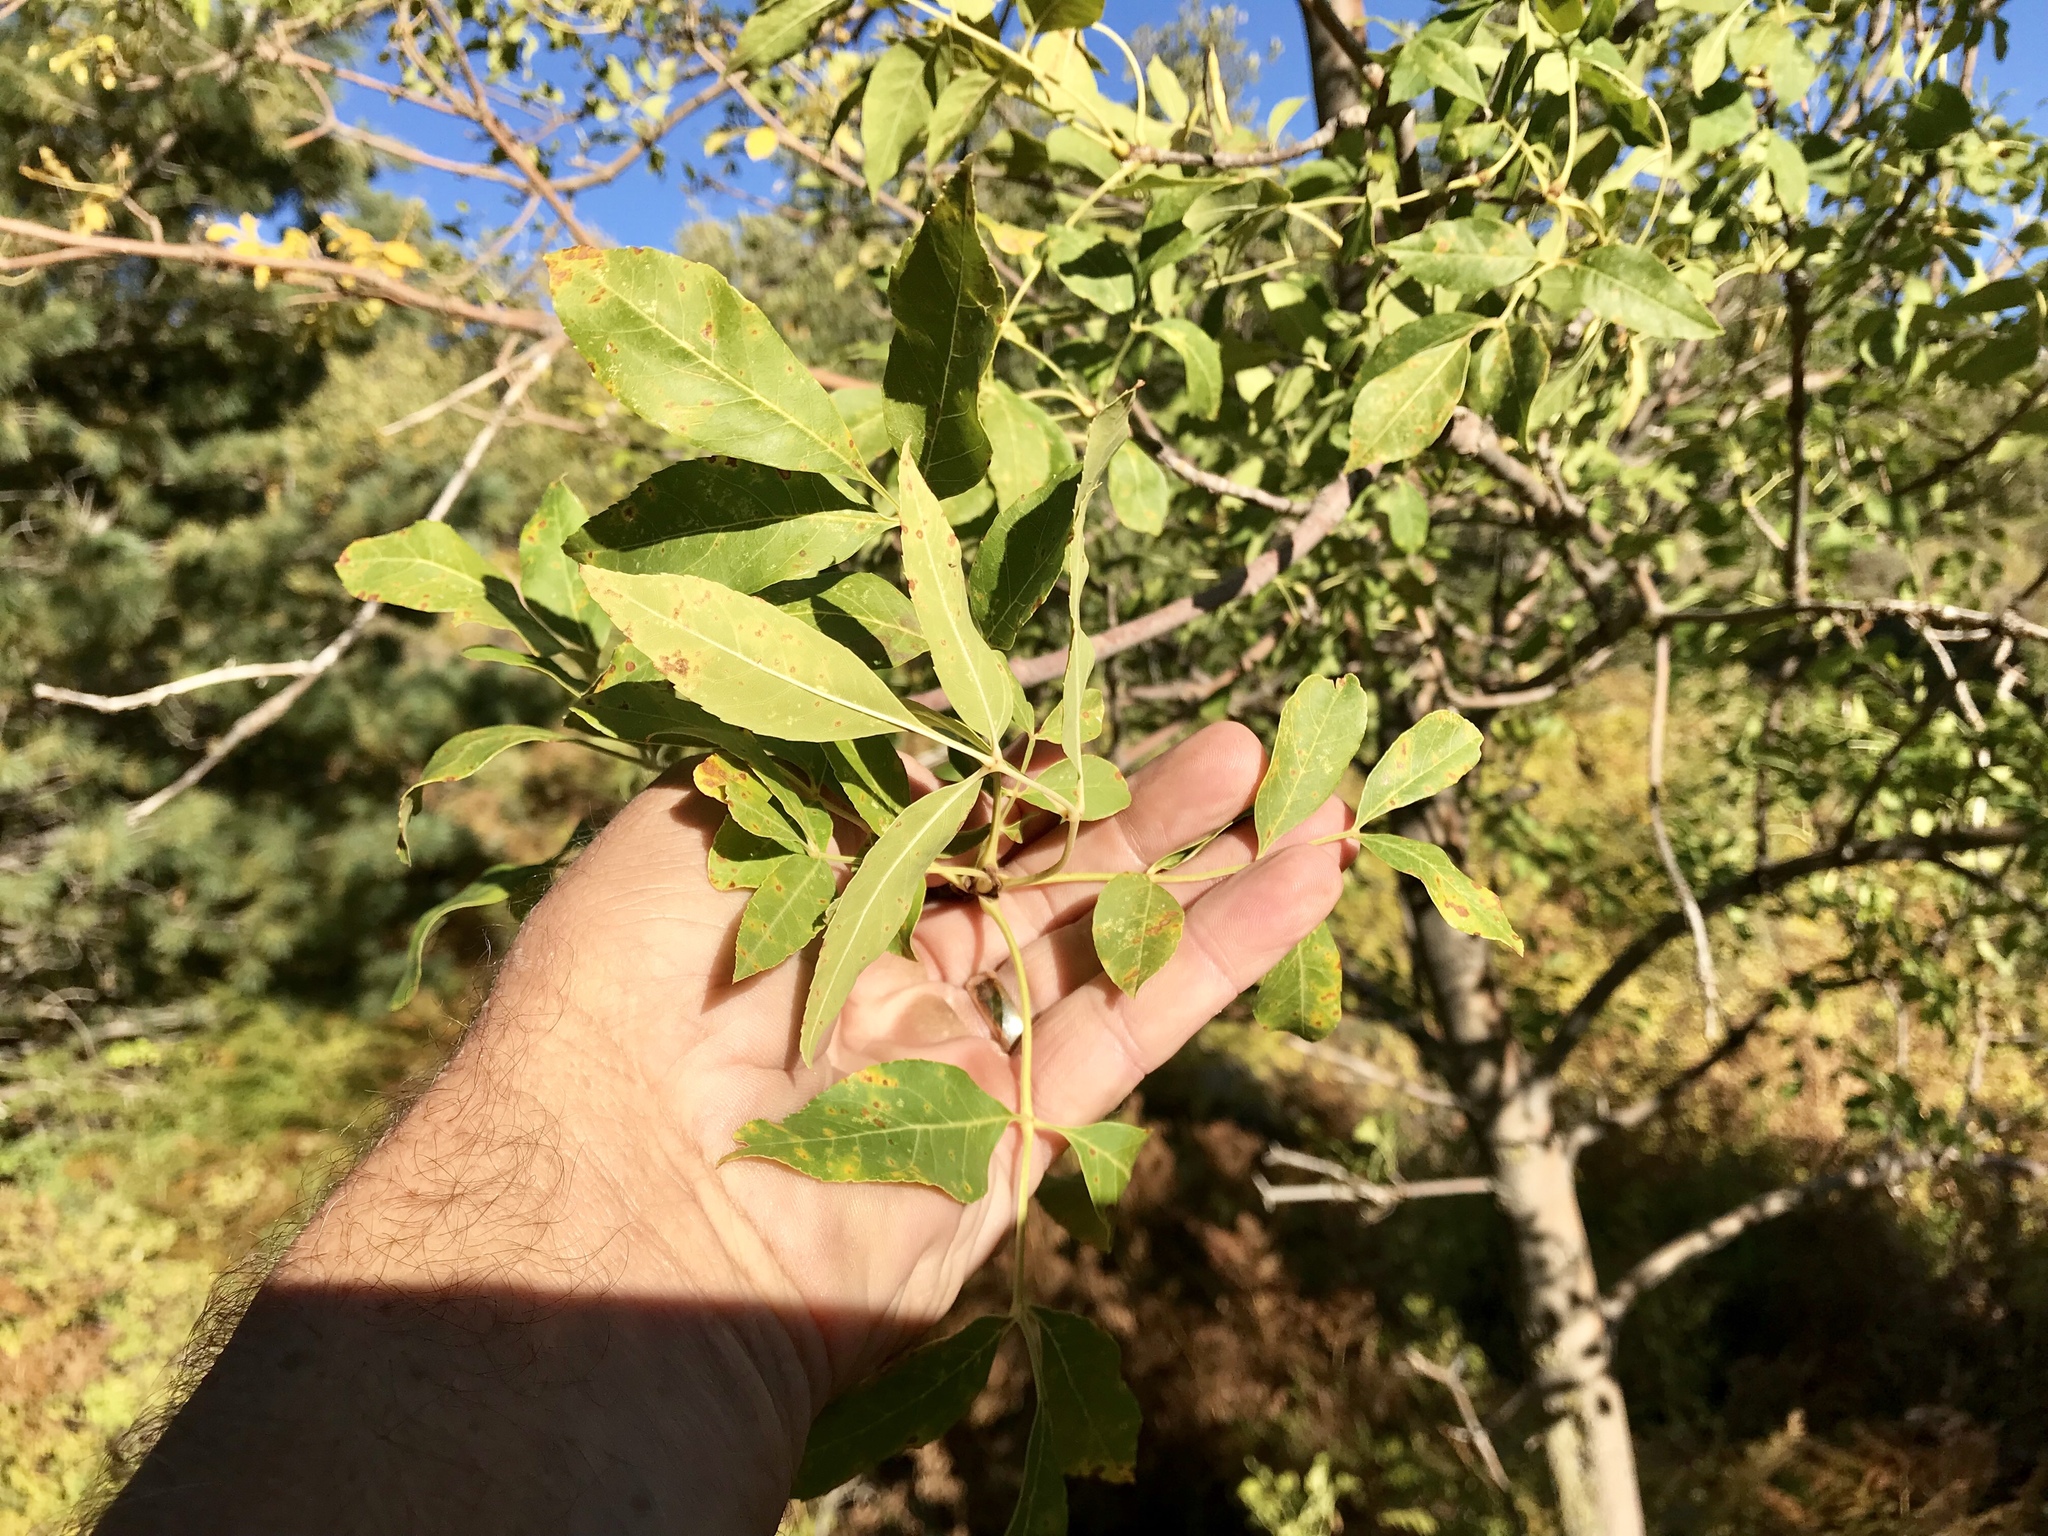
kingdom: Plantae
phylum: Tracheophyta
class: Magnoliopsida
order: Lamiales
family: Oleaceae
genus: Fraxinus
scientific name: Fraxinus velutina
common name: Arizon ash
